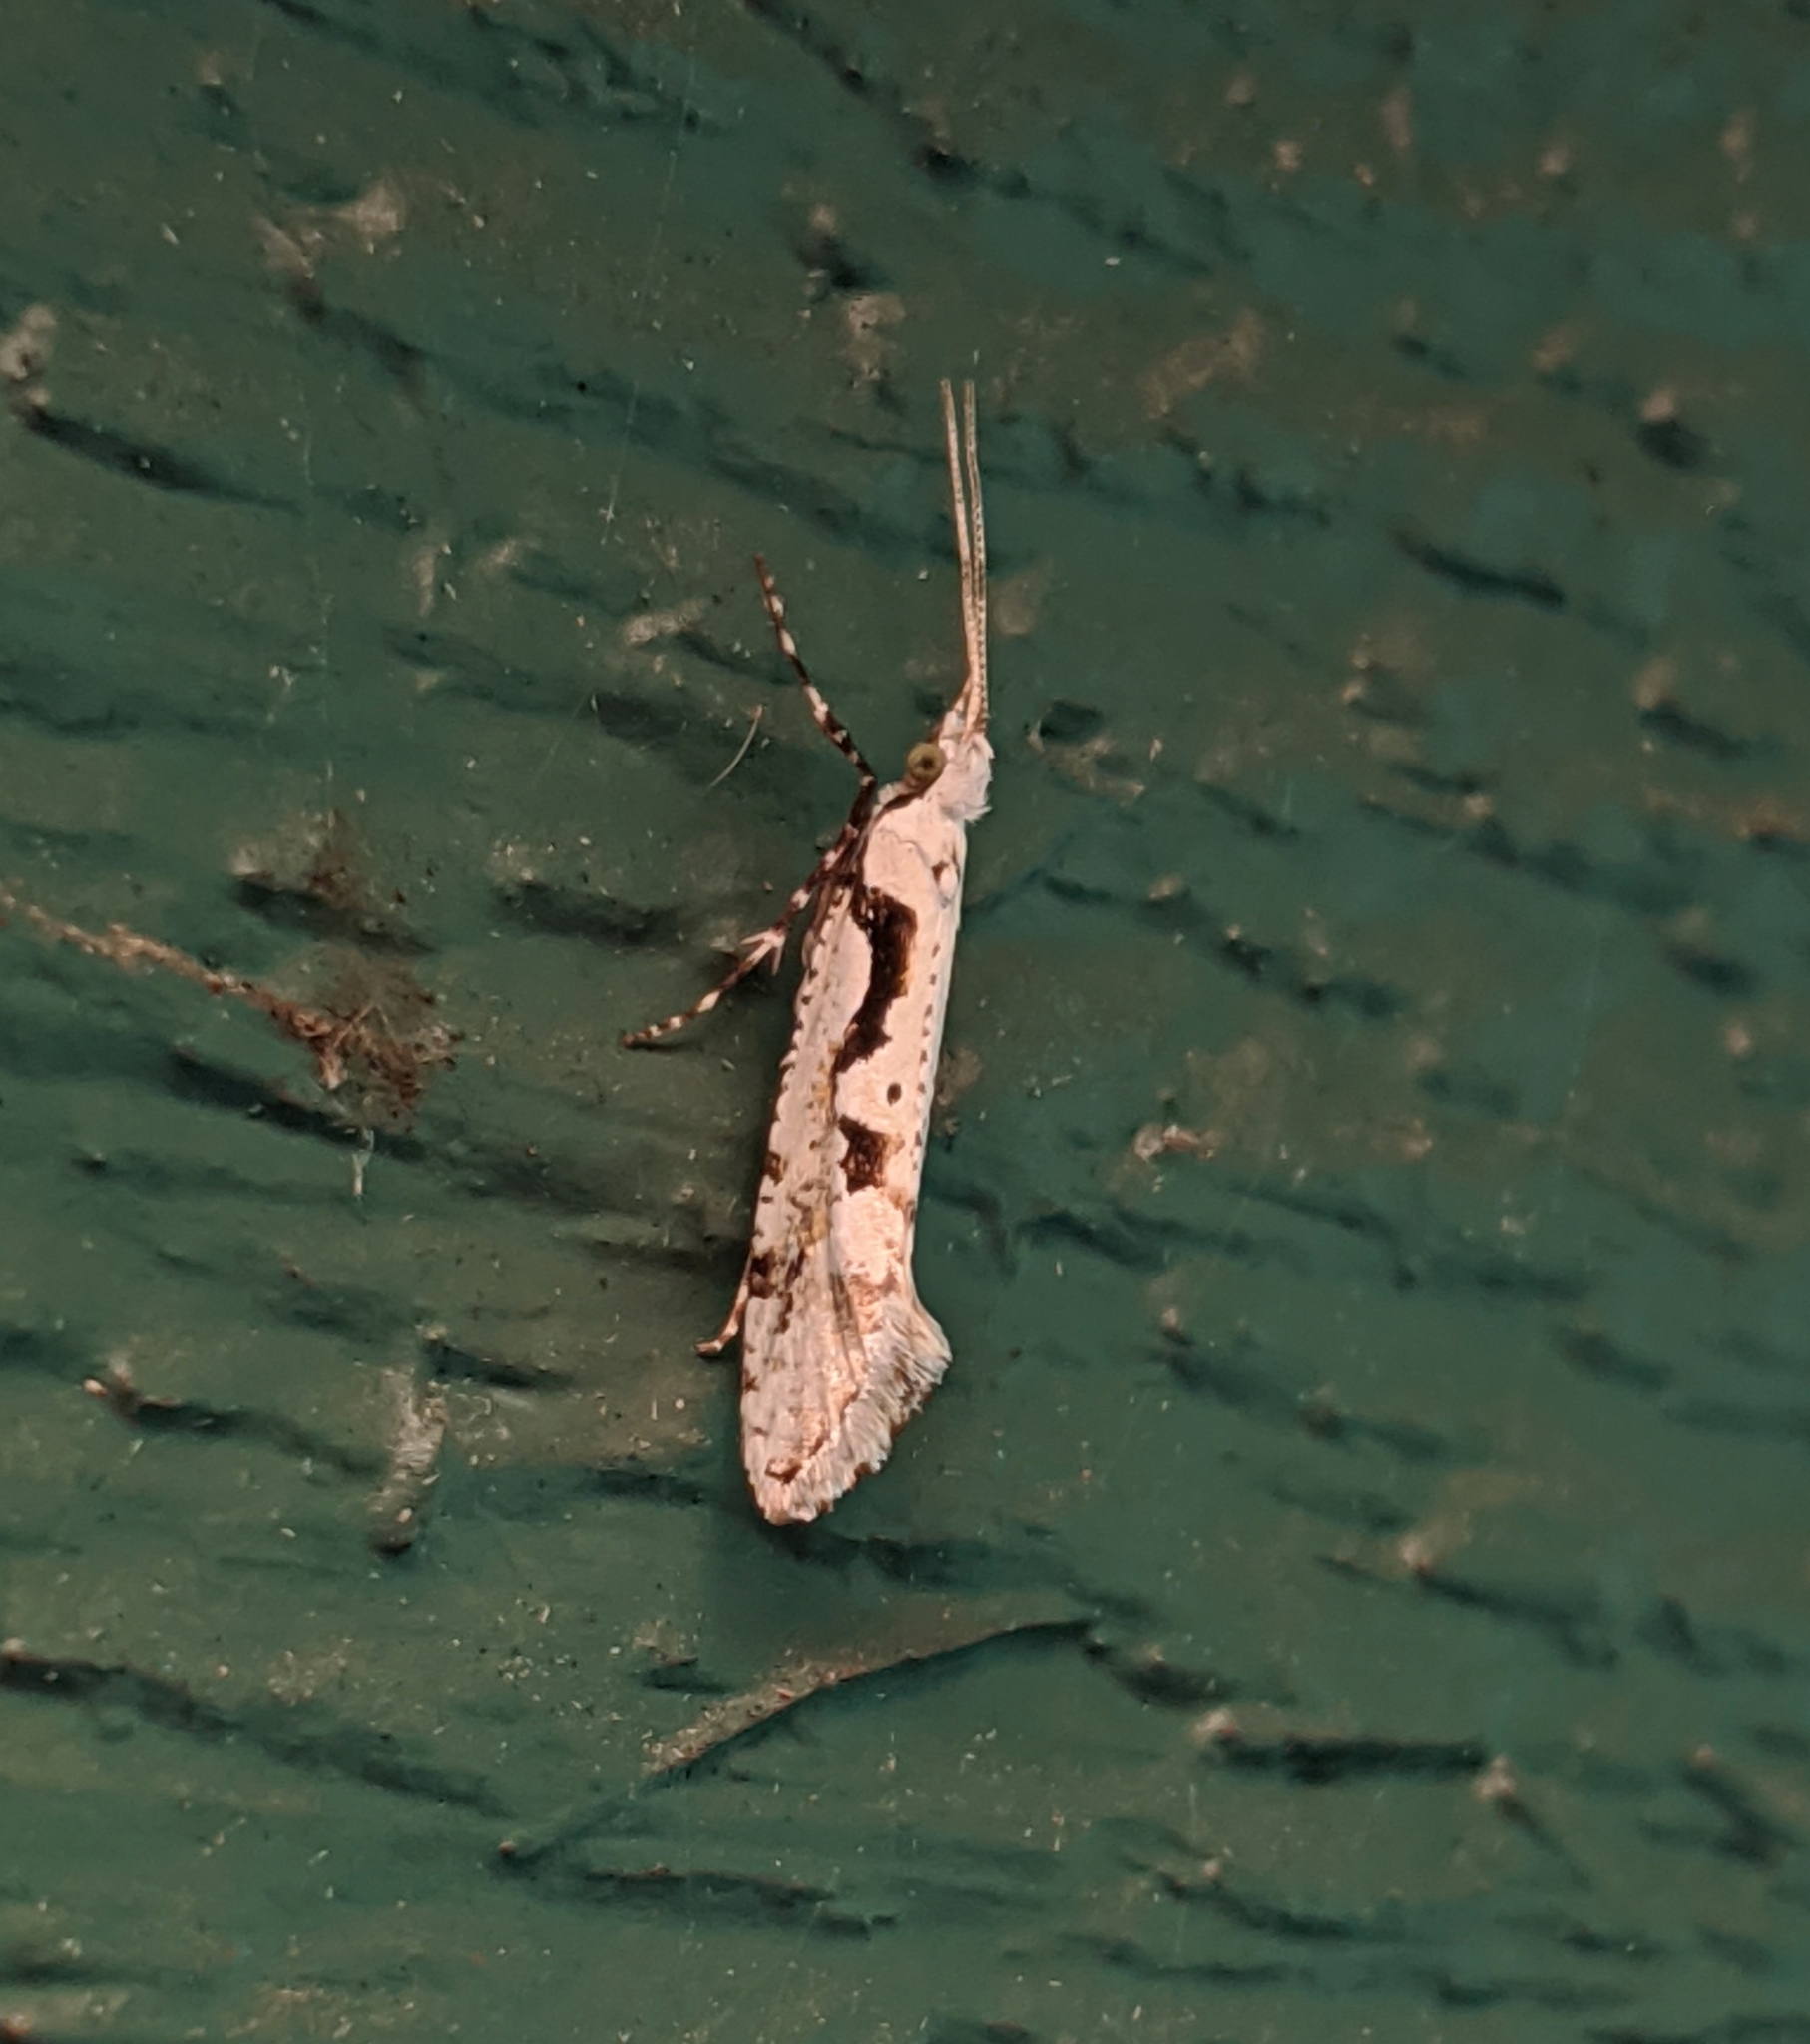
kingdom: Animalia
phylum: Arthropoda
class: Insecta
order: Lepidoptera
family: Plutellidae
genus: Rhigognostis
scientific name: Rhigognostis interrupta
